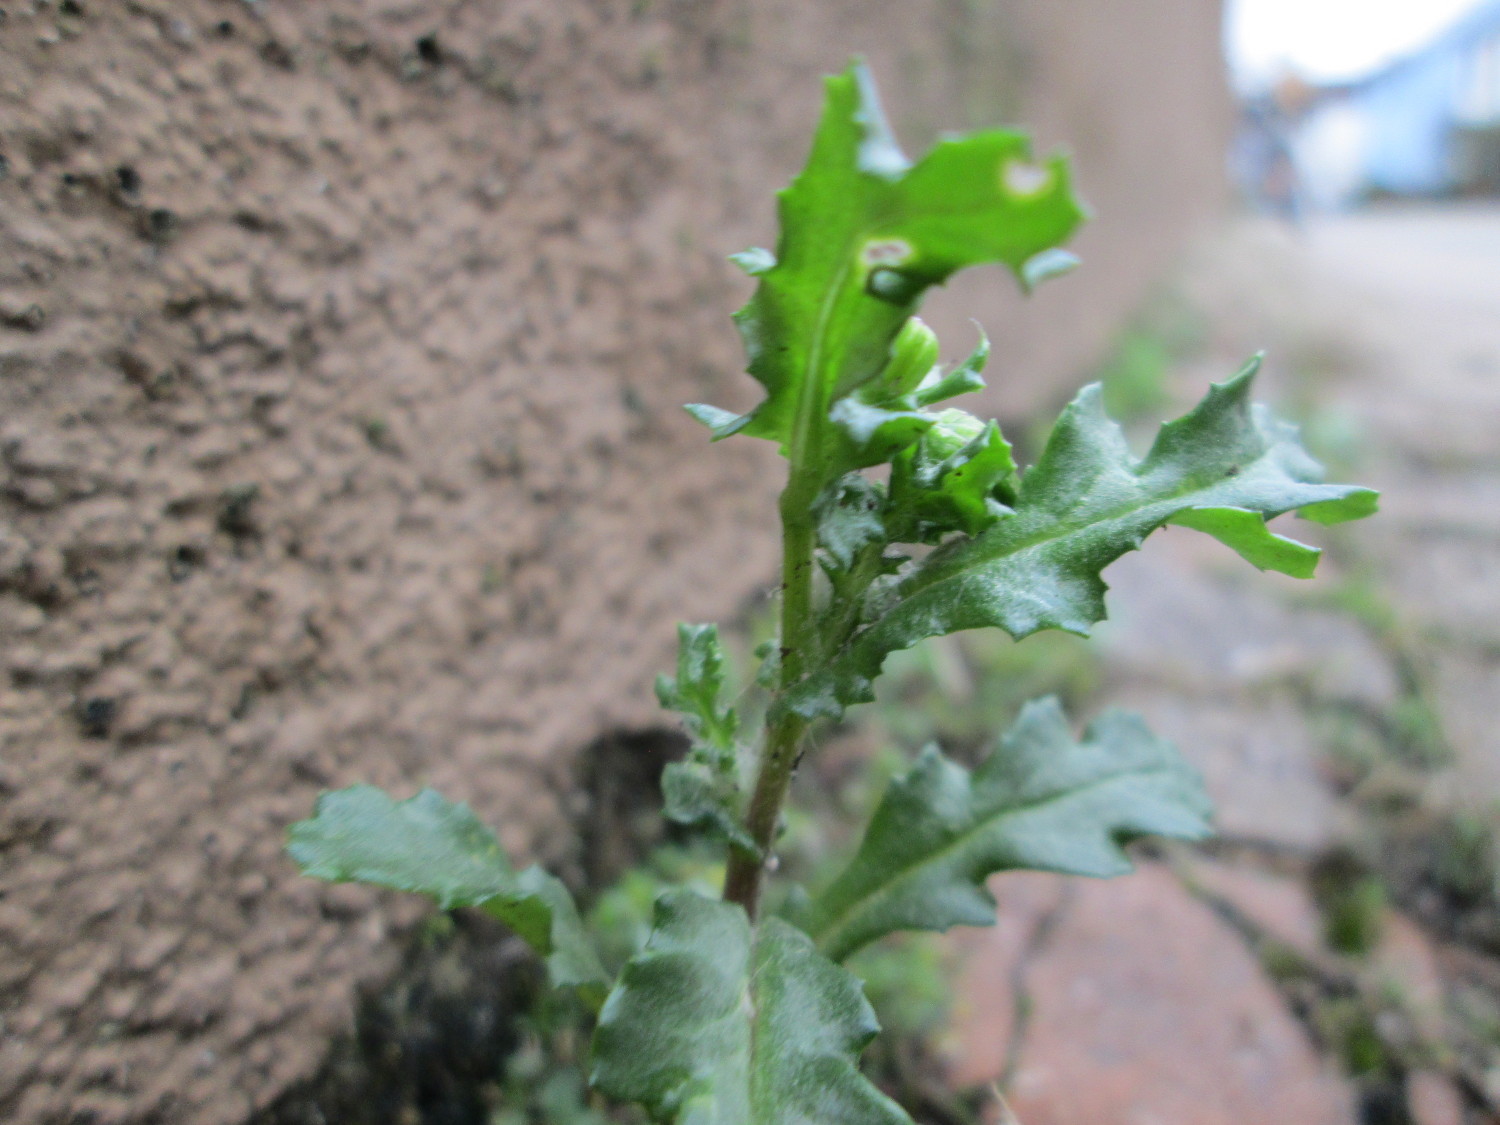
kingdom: Plantae
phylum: Tracheophyta
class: Magnoliopsida
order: Asterales
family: Asteraceae
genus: Senecio
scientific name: Senecio vulgaris
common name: Old-man-in-the-spring
